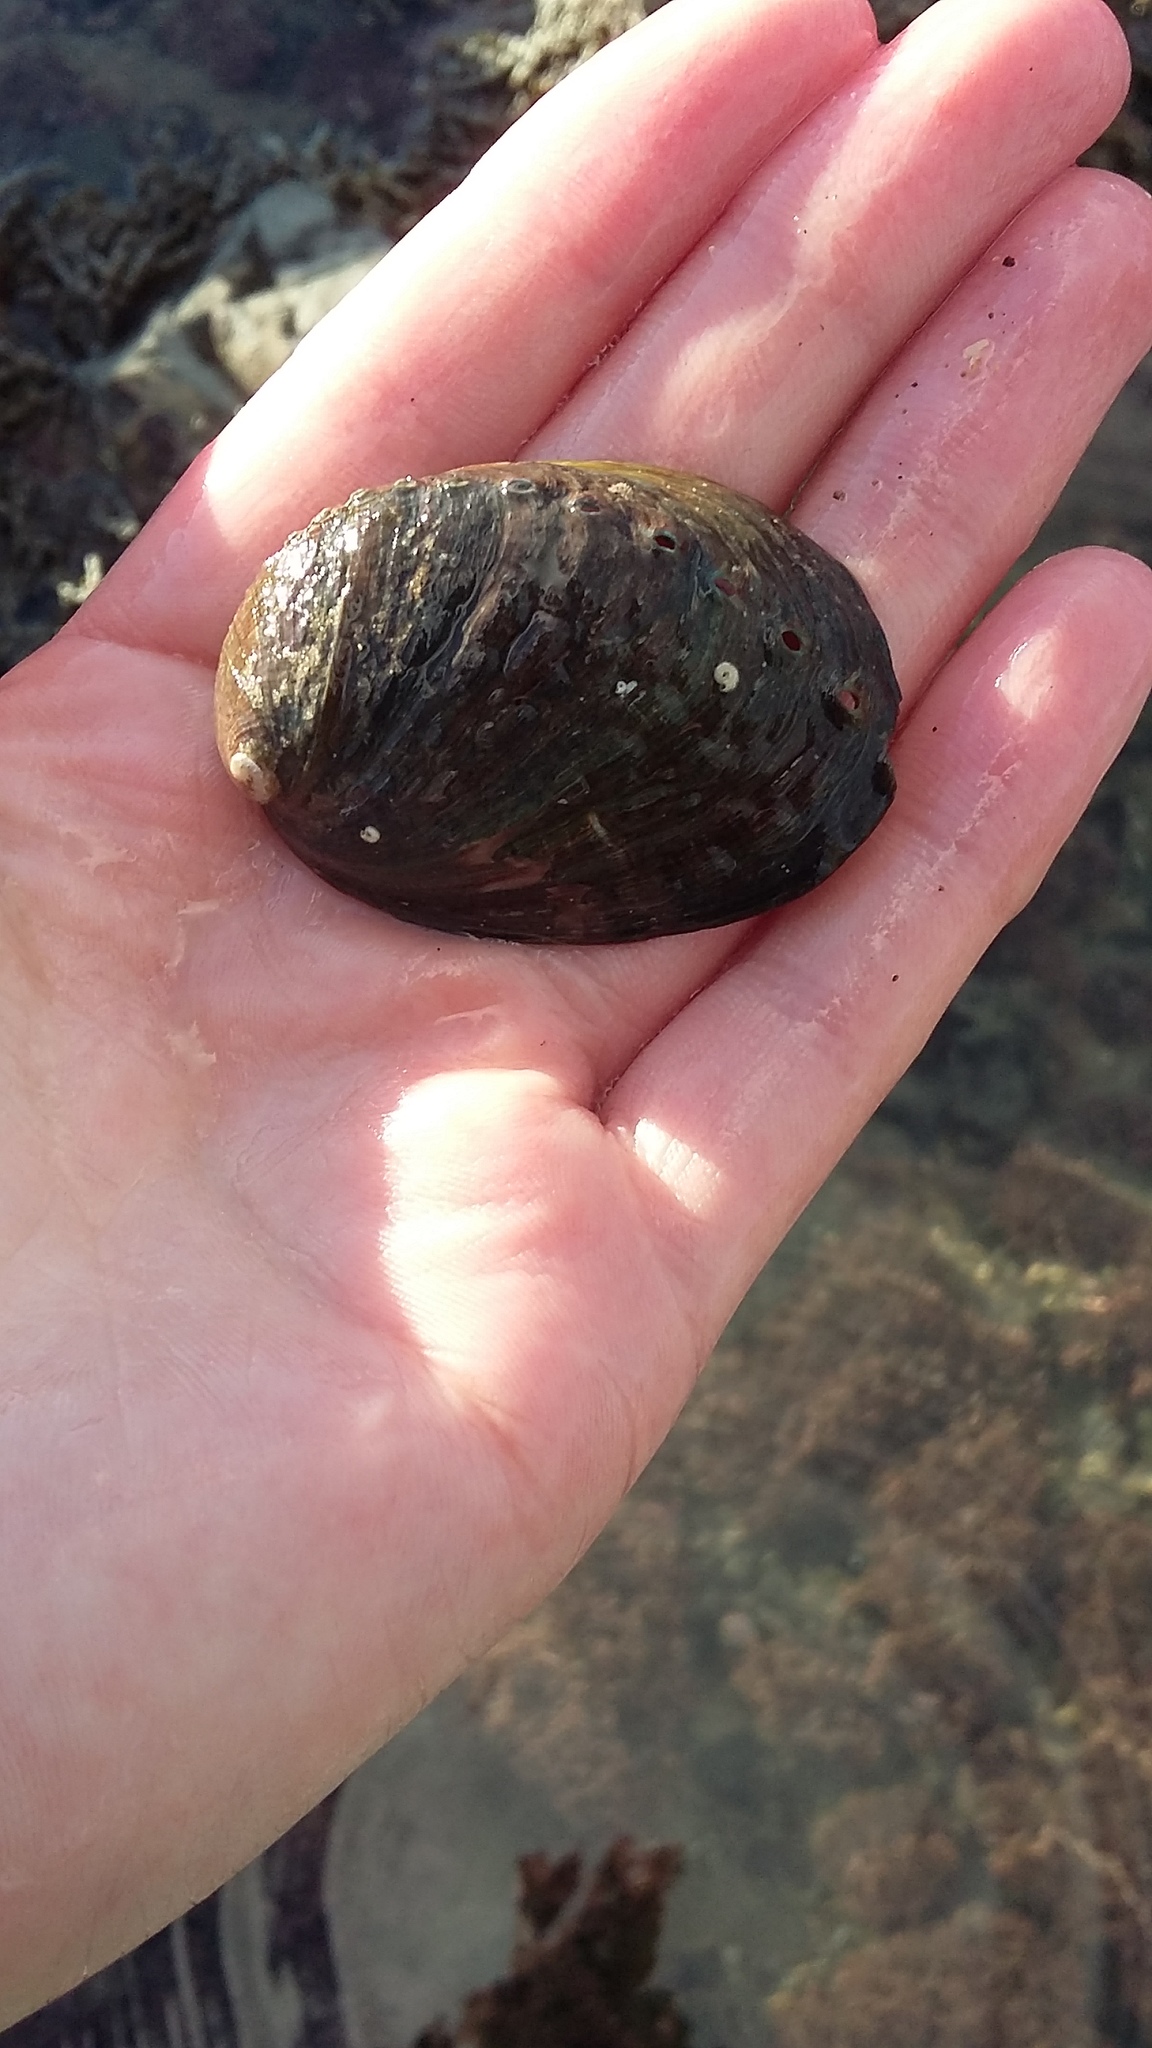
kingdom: Animalia
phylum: Mollusca
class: Gastropoda
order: Lepetellida
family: Haliotidae
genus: Haliotis
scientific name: Haliotis iris
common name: Abalone
